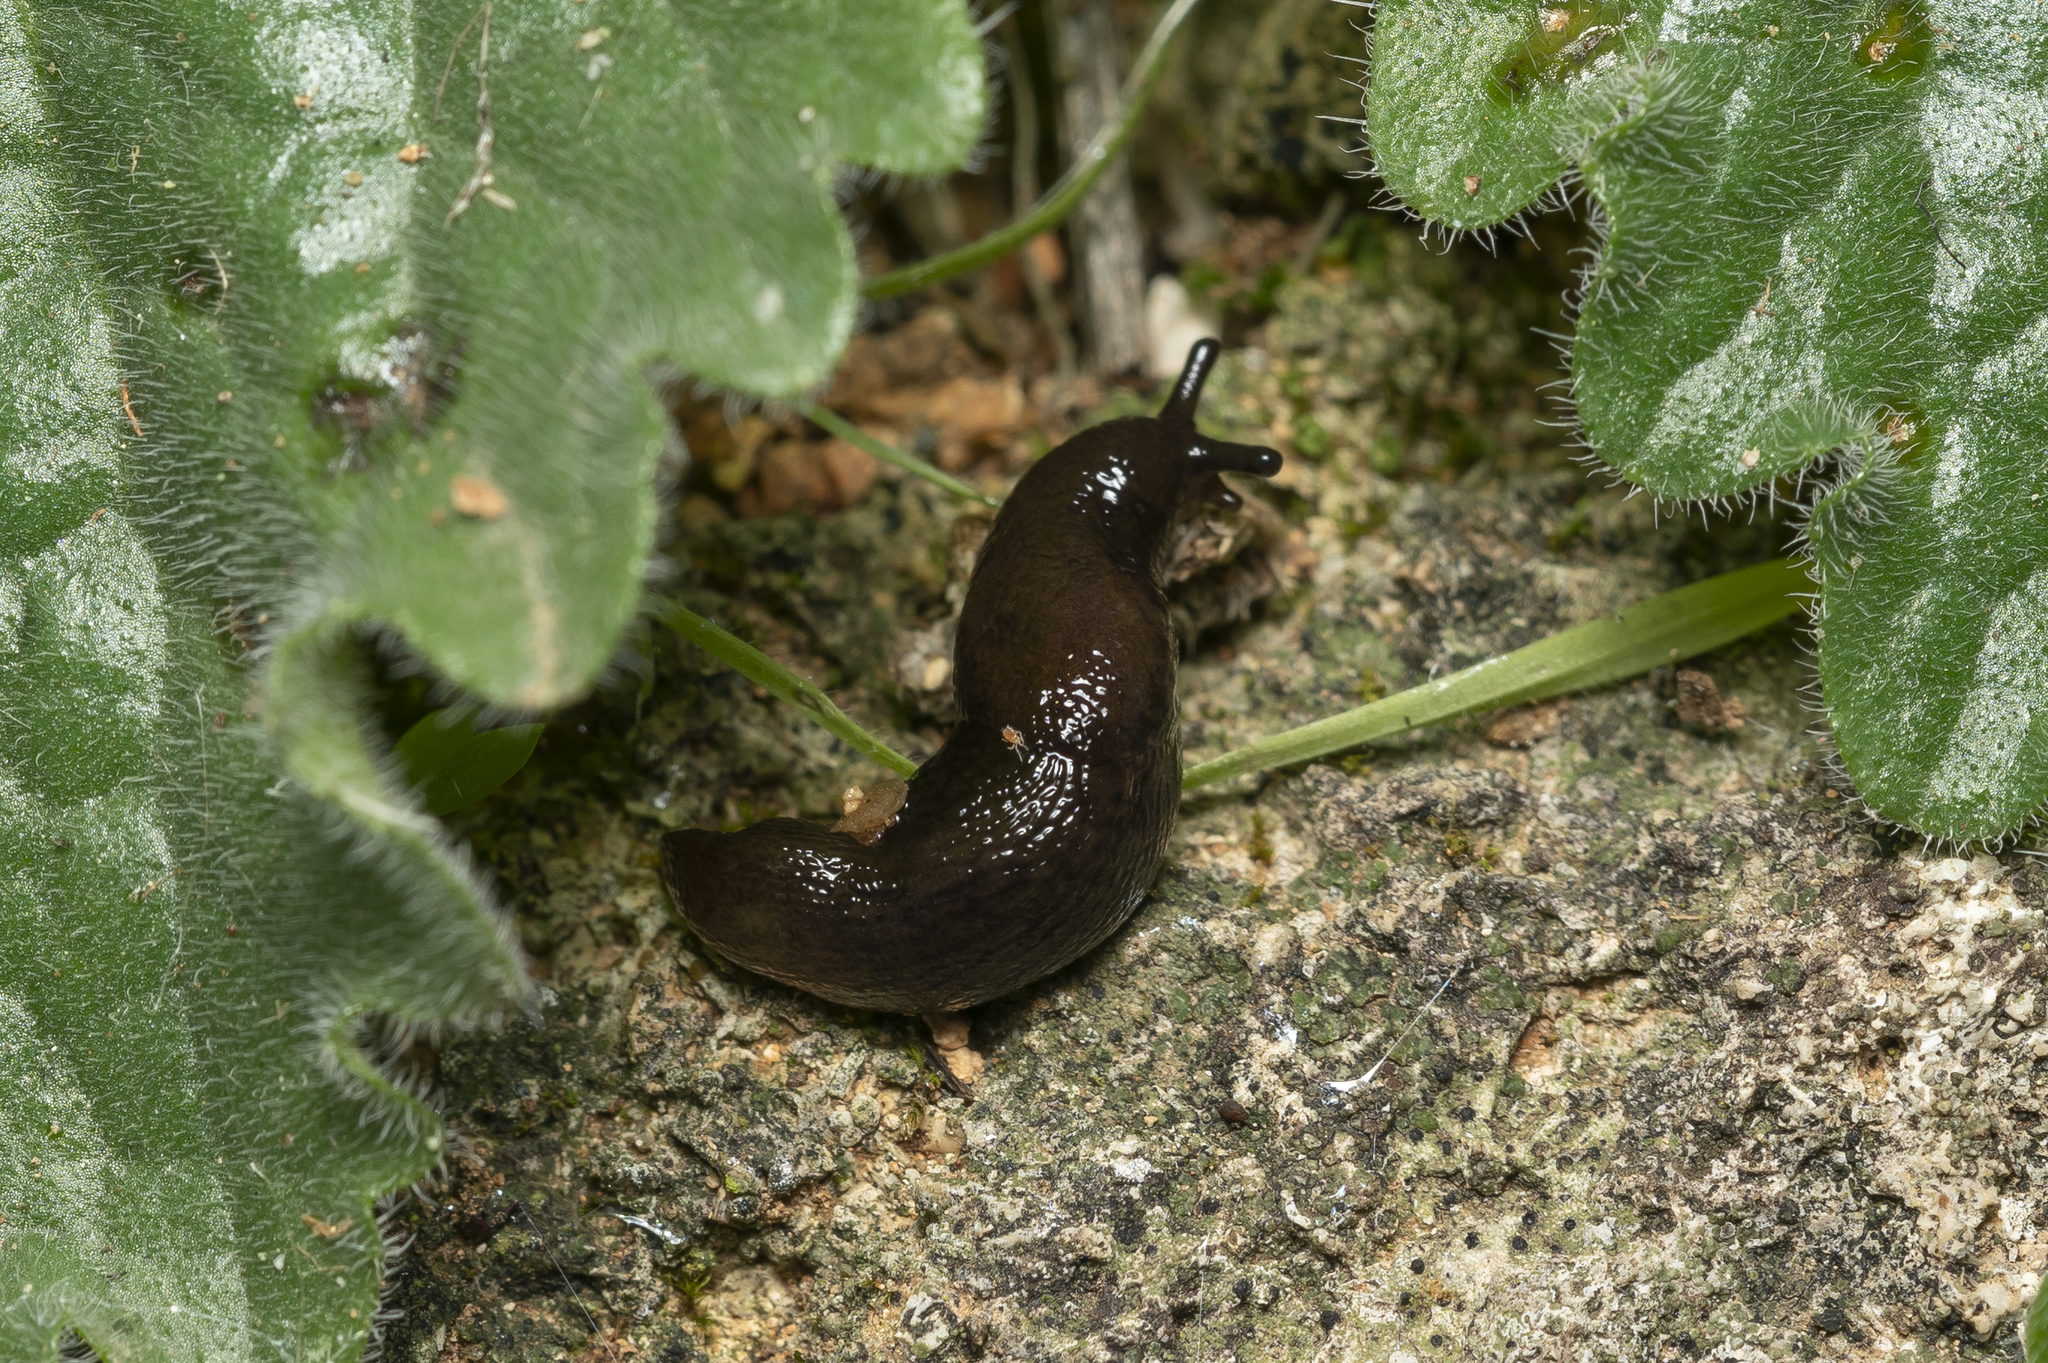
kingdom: Animalia
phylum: Mollusca
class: Gastropoda
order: Stylommatophora
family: Agriolimacidae
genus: Mesolimax
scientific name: Mesolimax brauni
